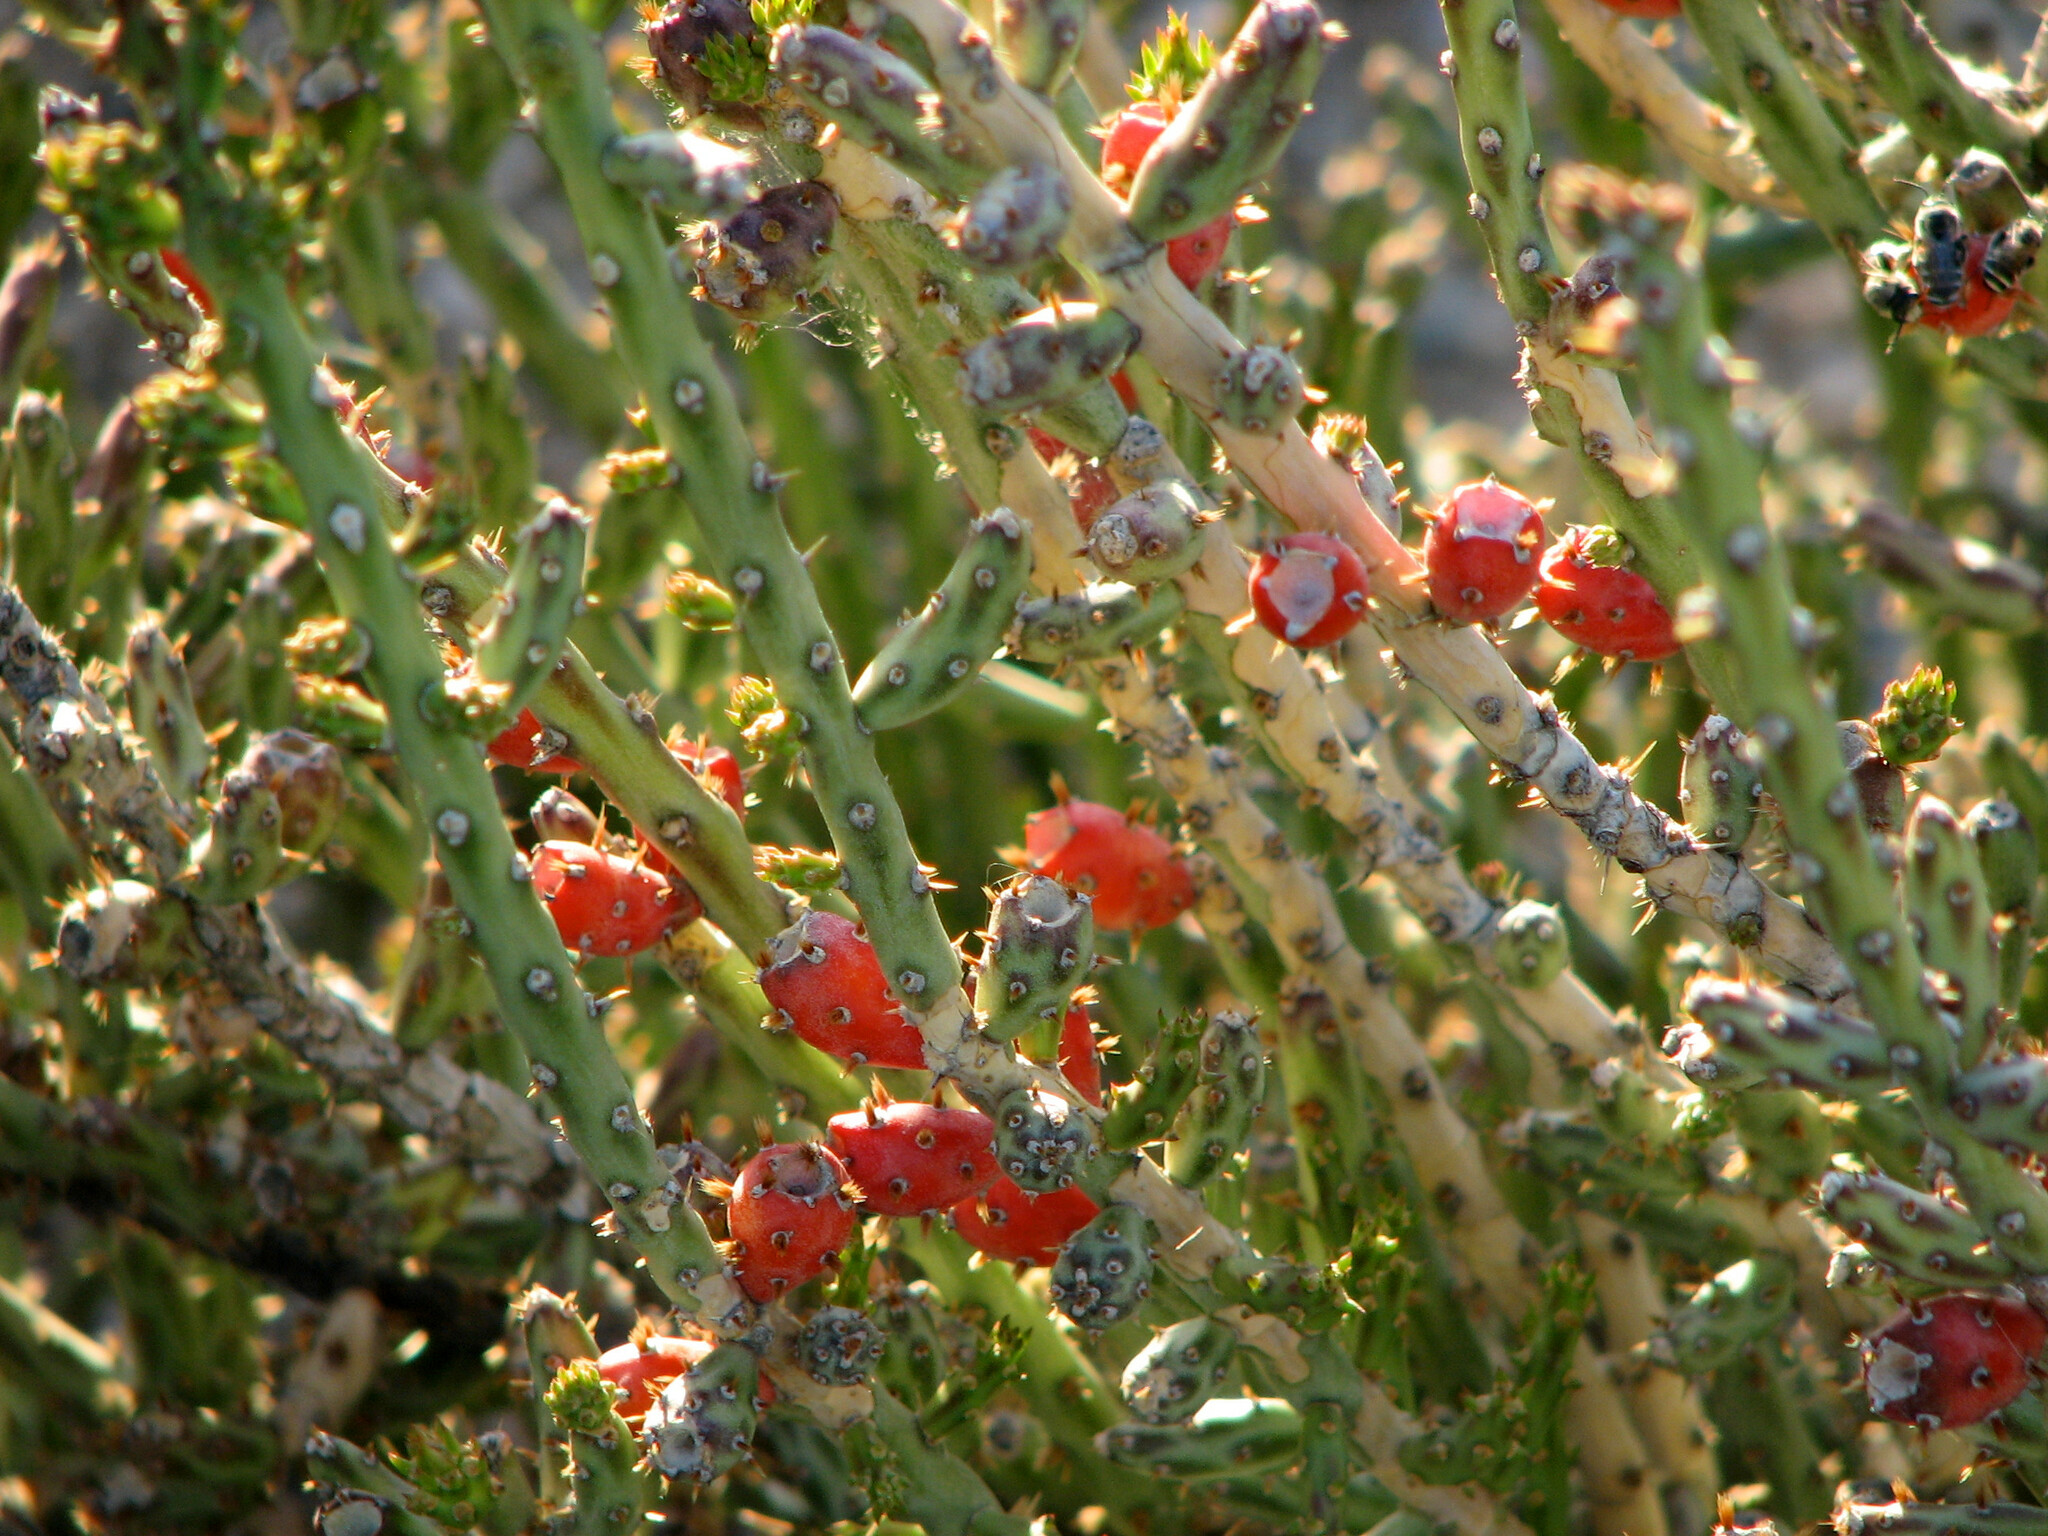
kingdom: Plantae
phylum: Tracheophyta
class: Magnoliopsida
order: Caryophyllales
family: Cactaceae
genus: Cylindropuntia
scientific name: Cylindropuntia leptocaulis
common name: Christmas cactus
